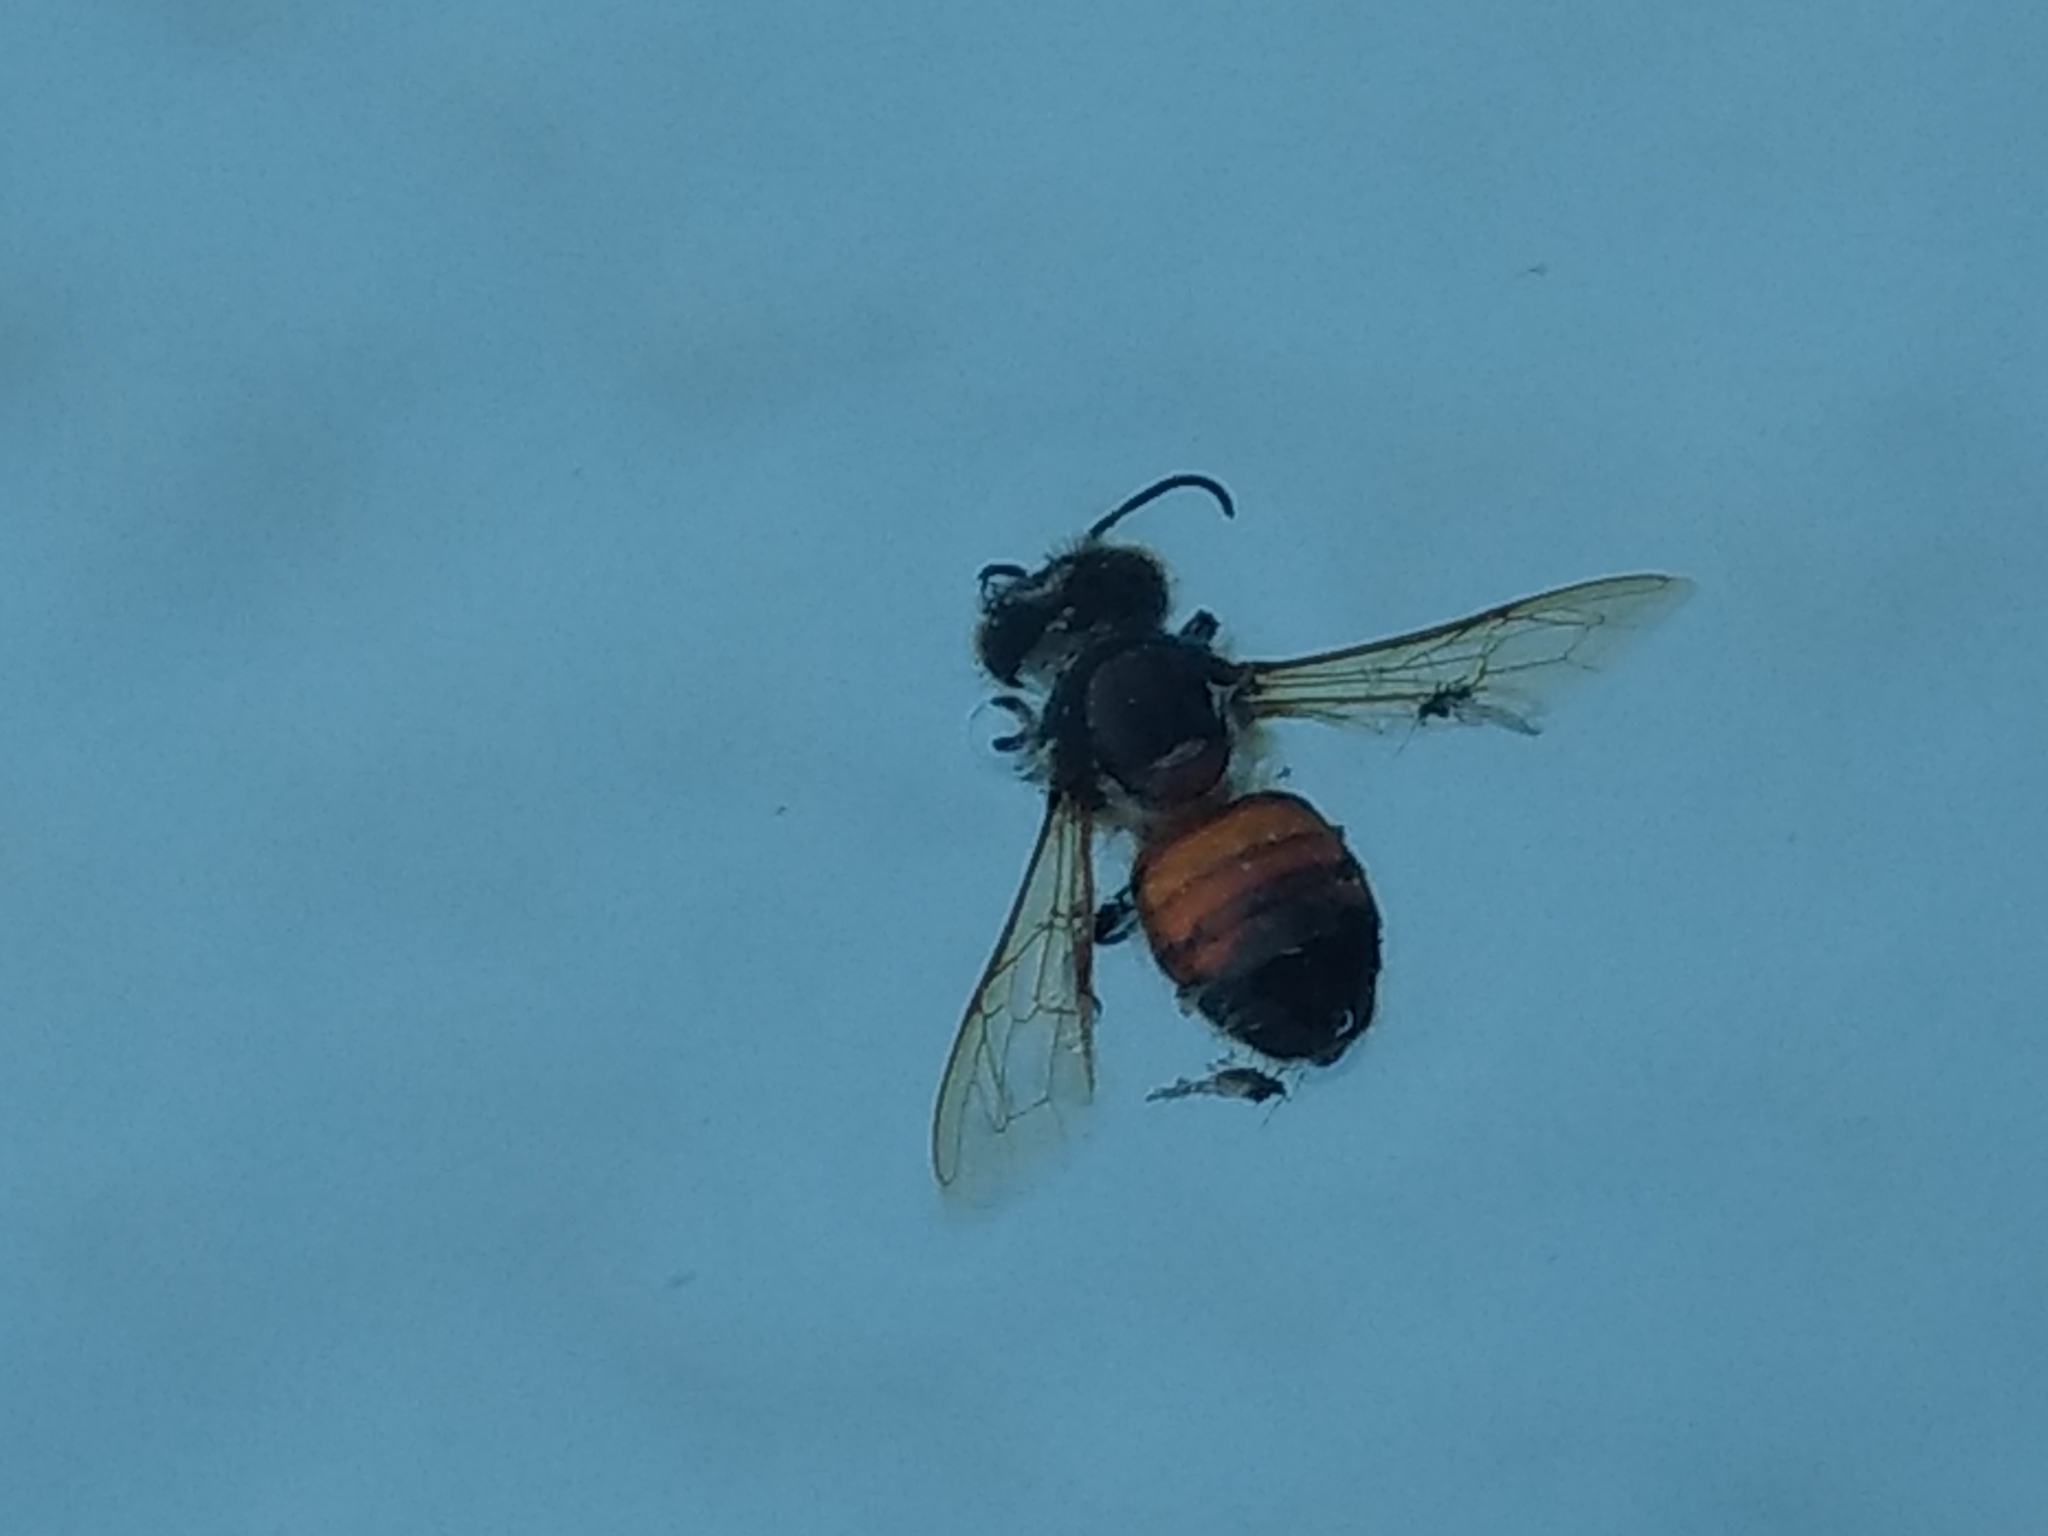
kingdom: Animalia
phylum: Arthropoda
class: Insecta
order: Hymenoptera
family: Apidae
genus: Apis
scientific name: Apis mellifera
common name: Honey bee
